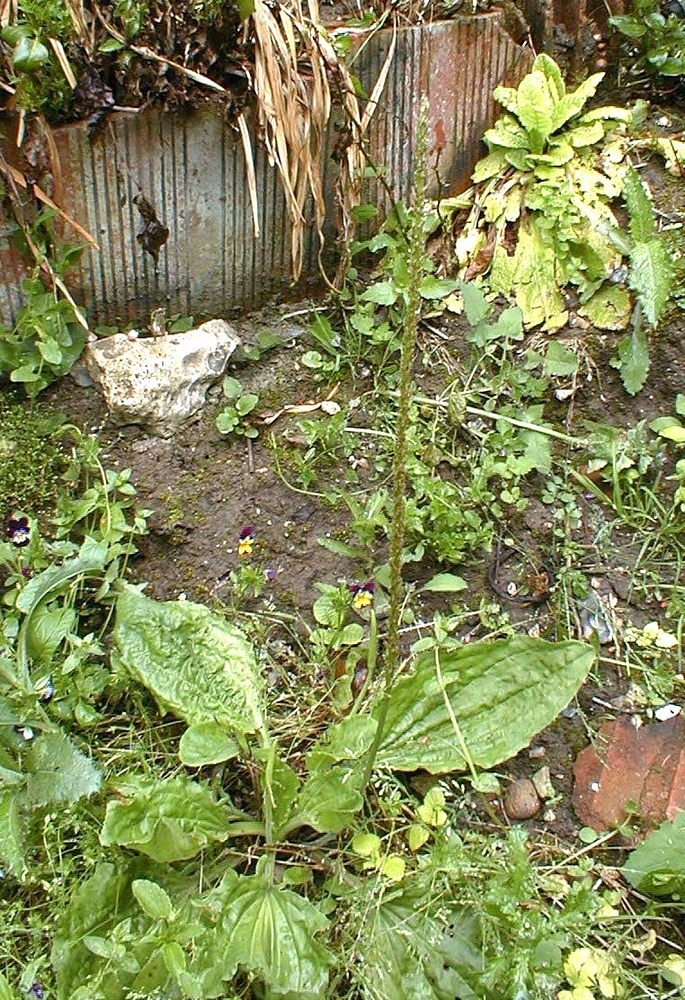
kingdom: Plantae
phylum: Tracheophyta
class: Magnoliopsida
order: Lamiales
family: Plantaginaceae
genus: Plantago
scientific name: Plantago major
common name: Common plantain
